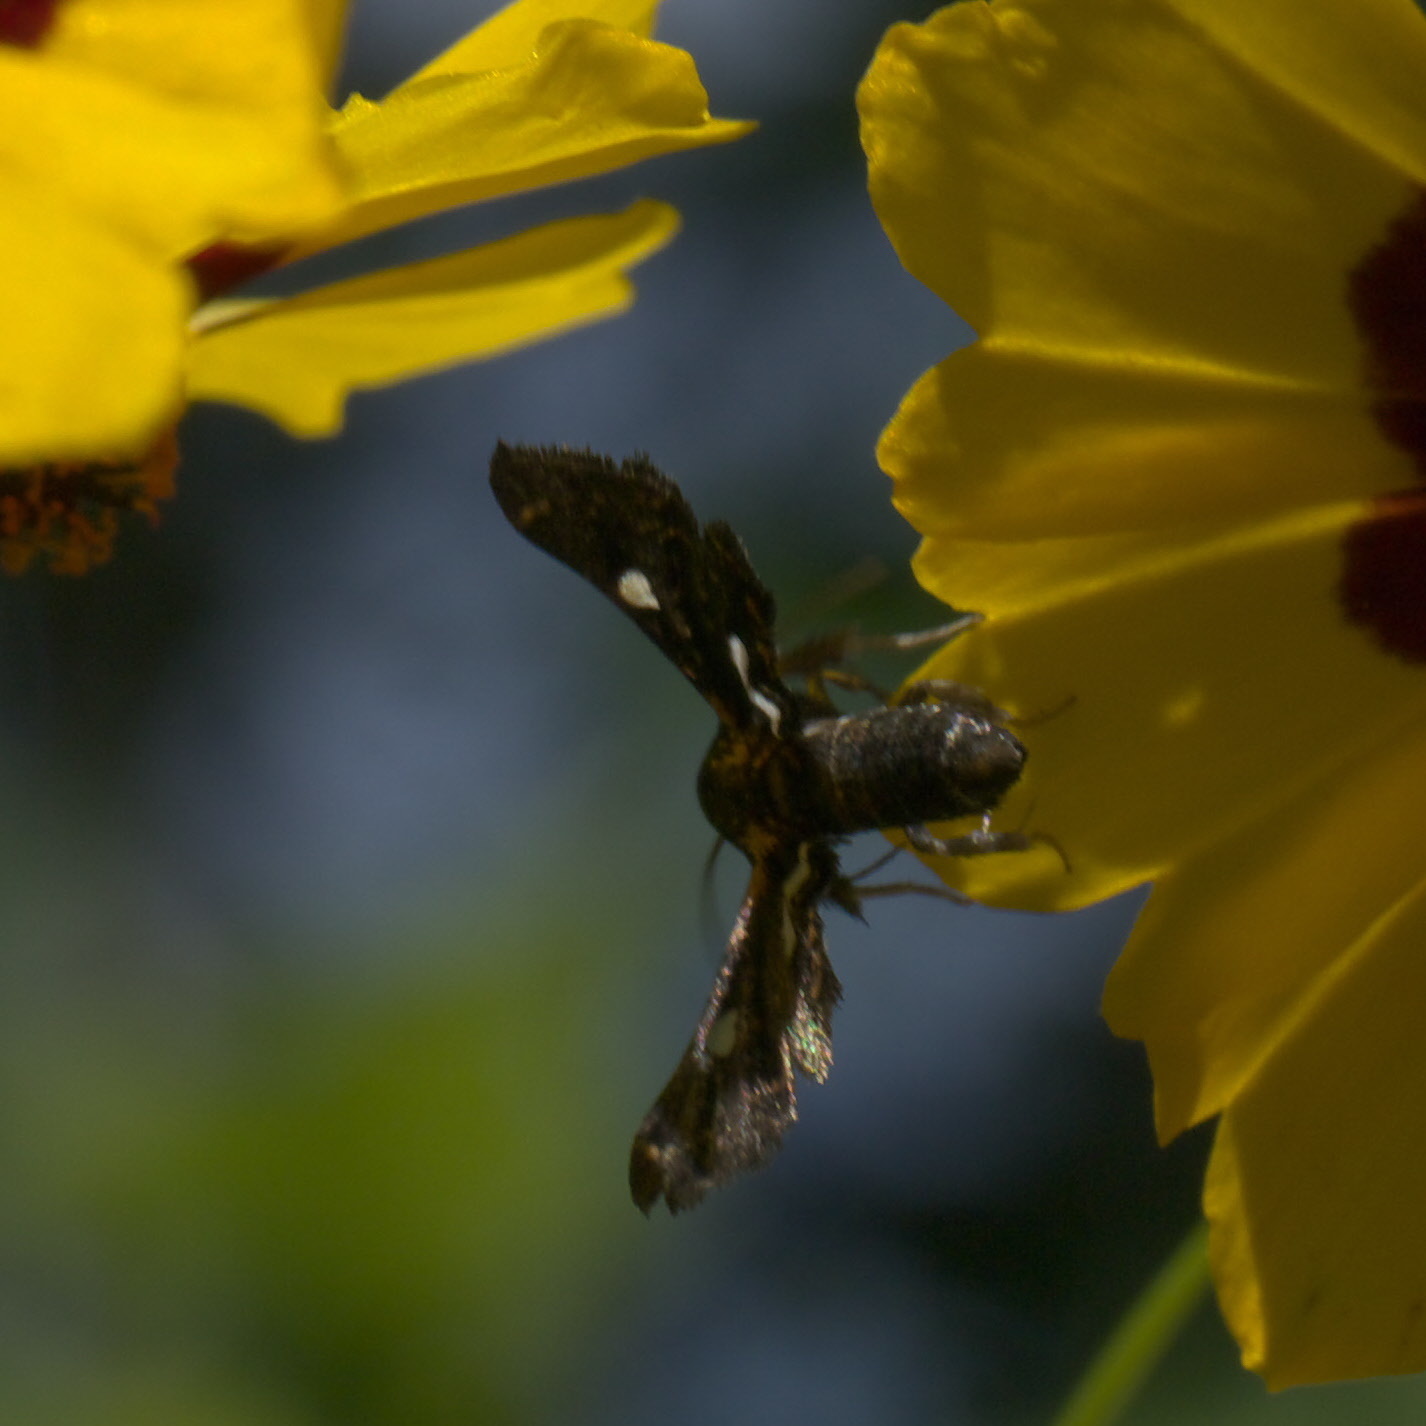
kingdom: Animalia
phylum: Arthropoda
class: Insecta
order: Lepidoptera
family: Thyrididae
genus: Thyris
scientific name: Thyris maculata
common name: Spotted thyris moth
